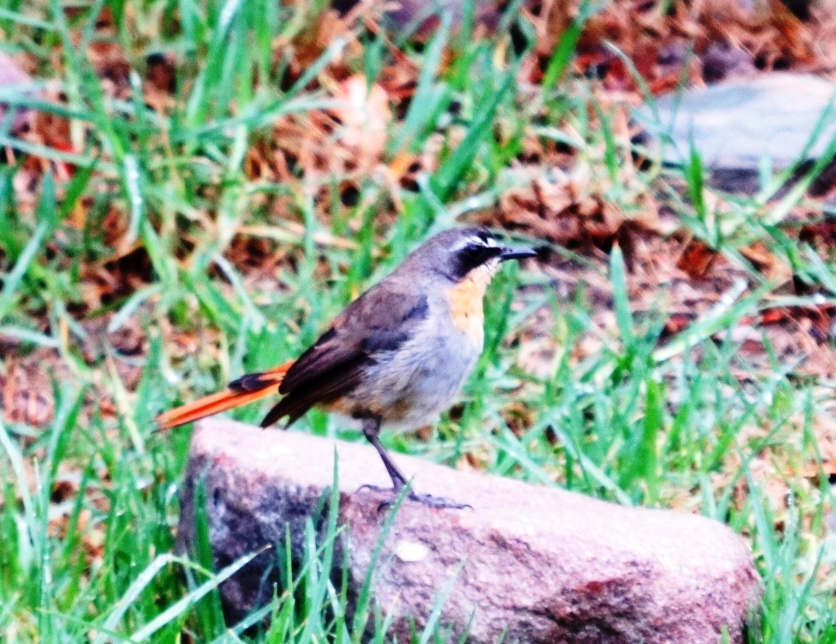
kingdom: Animalia
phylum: Chordata
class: Aves
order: Passeriformes
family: Muscicapidae
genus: Cossypha
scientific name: Cossypha caffra
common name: Cape robin-chat
